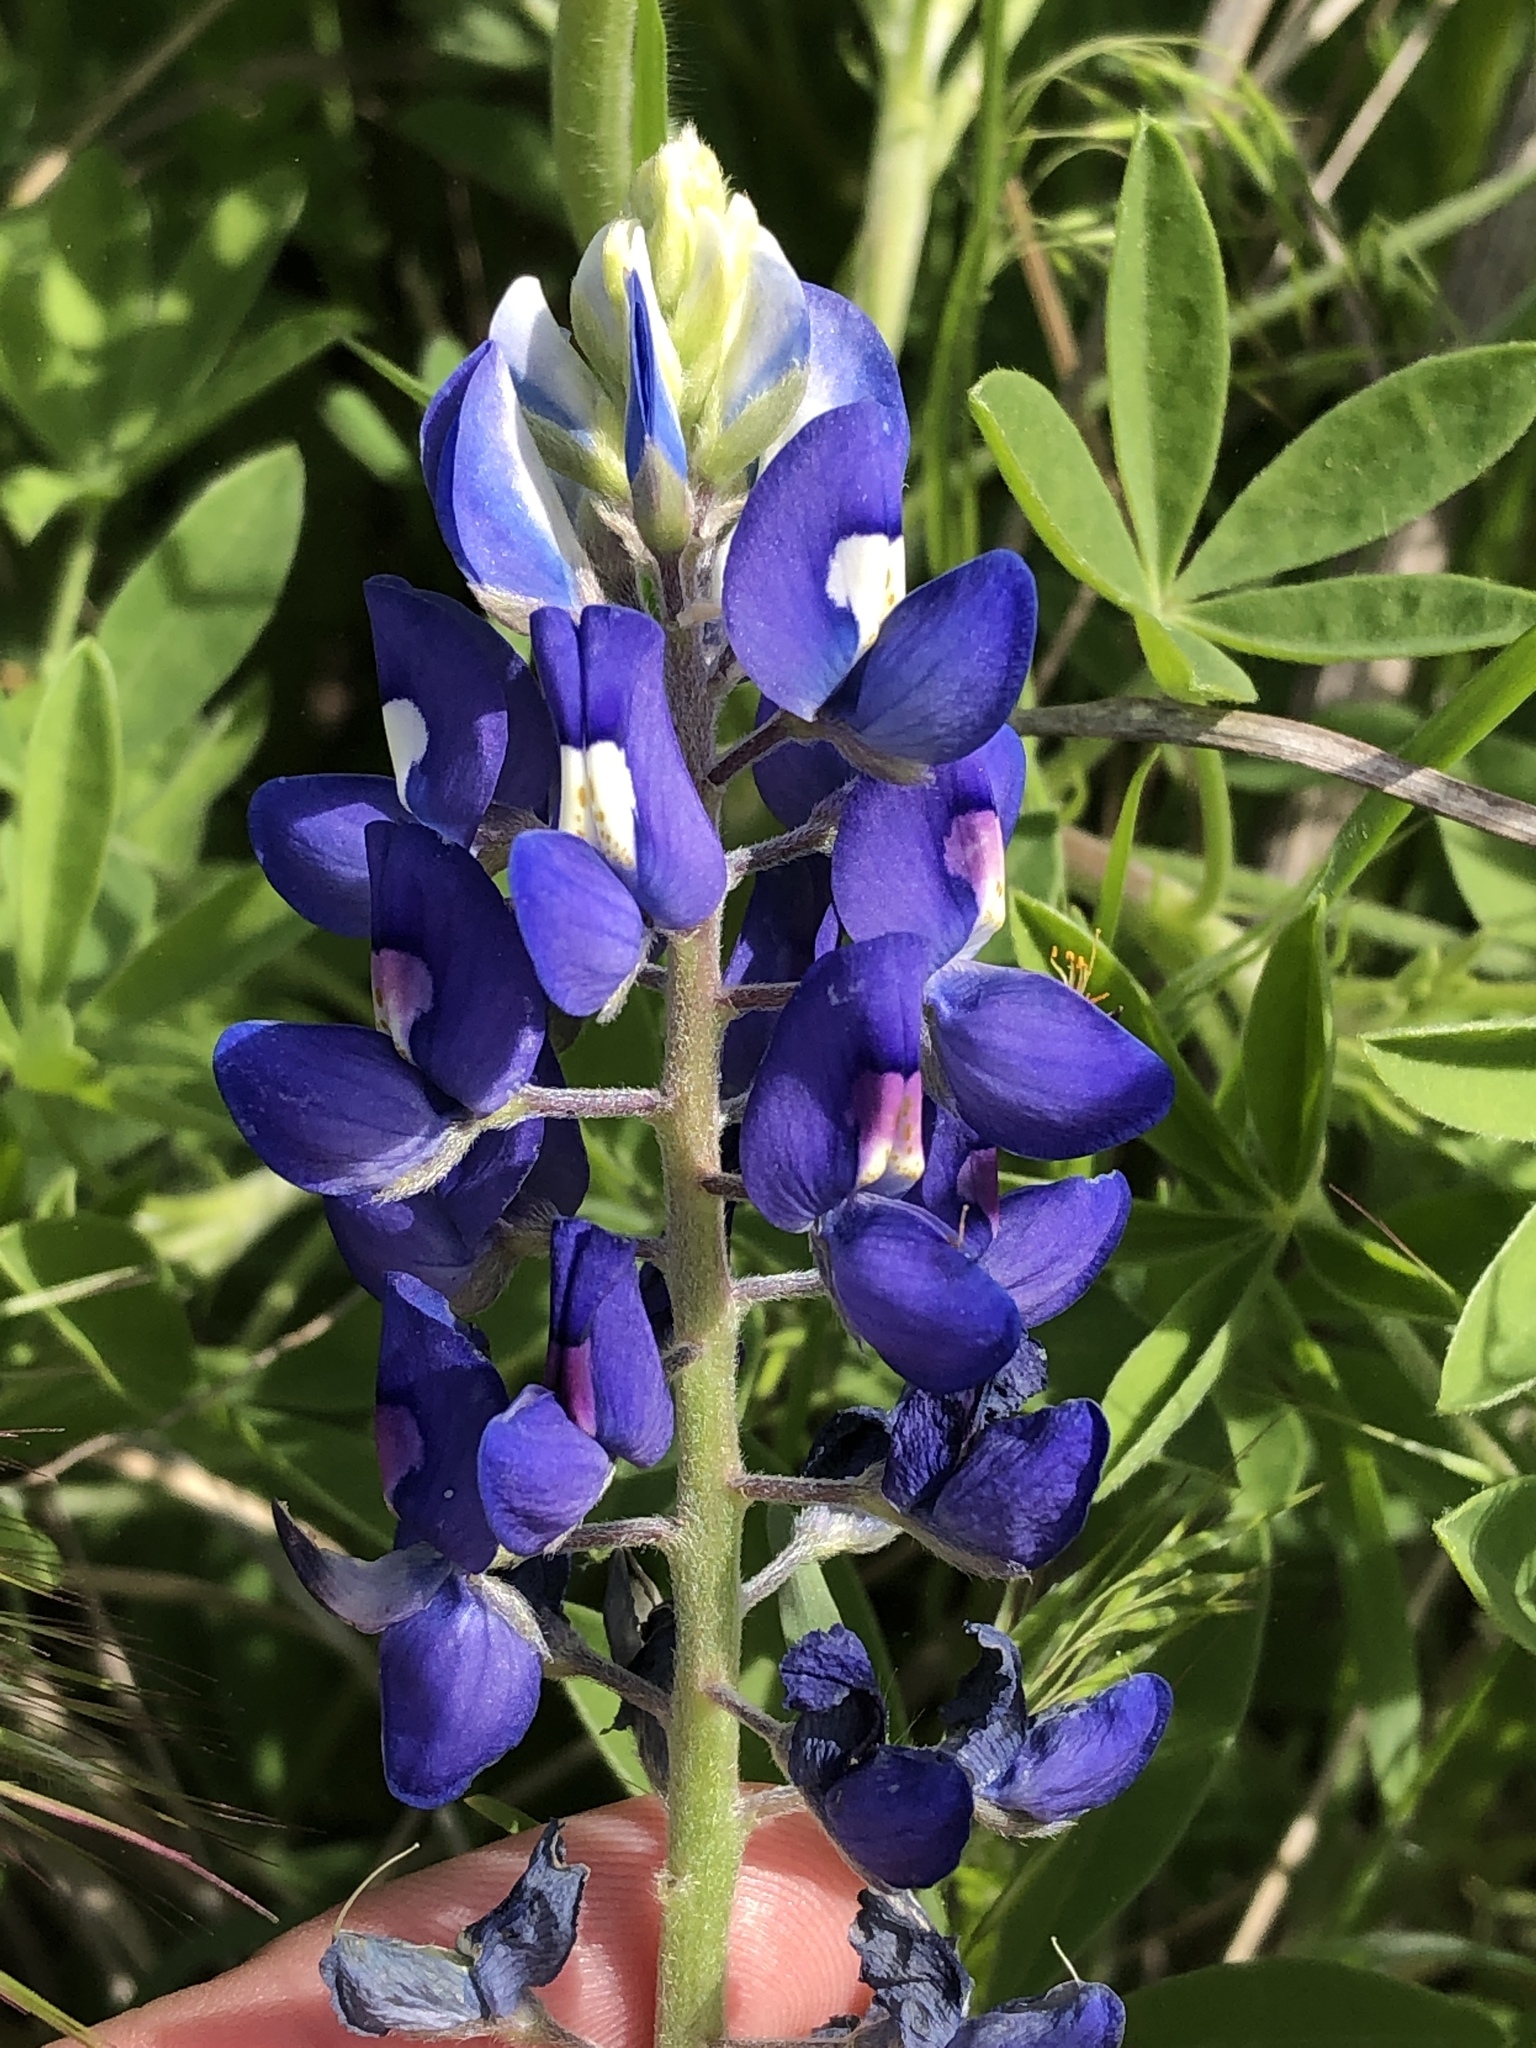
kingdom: Plantae
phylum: Tracheophyta
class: Magnoliopsida
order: Fabales
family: Fabaceae
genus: Lupinus
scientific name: Lupinus texensis
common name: Texas bluebonnet
